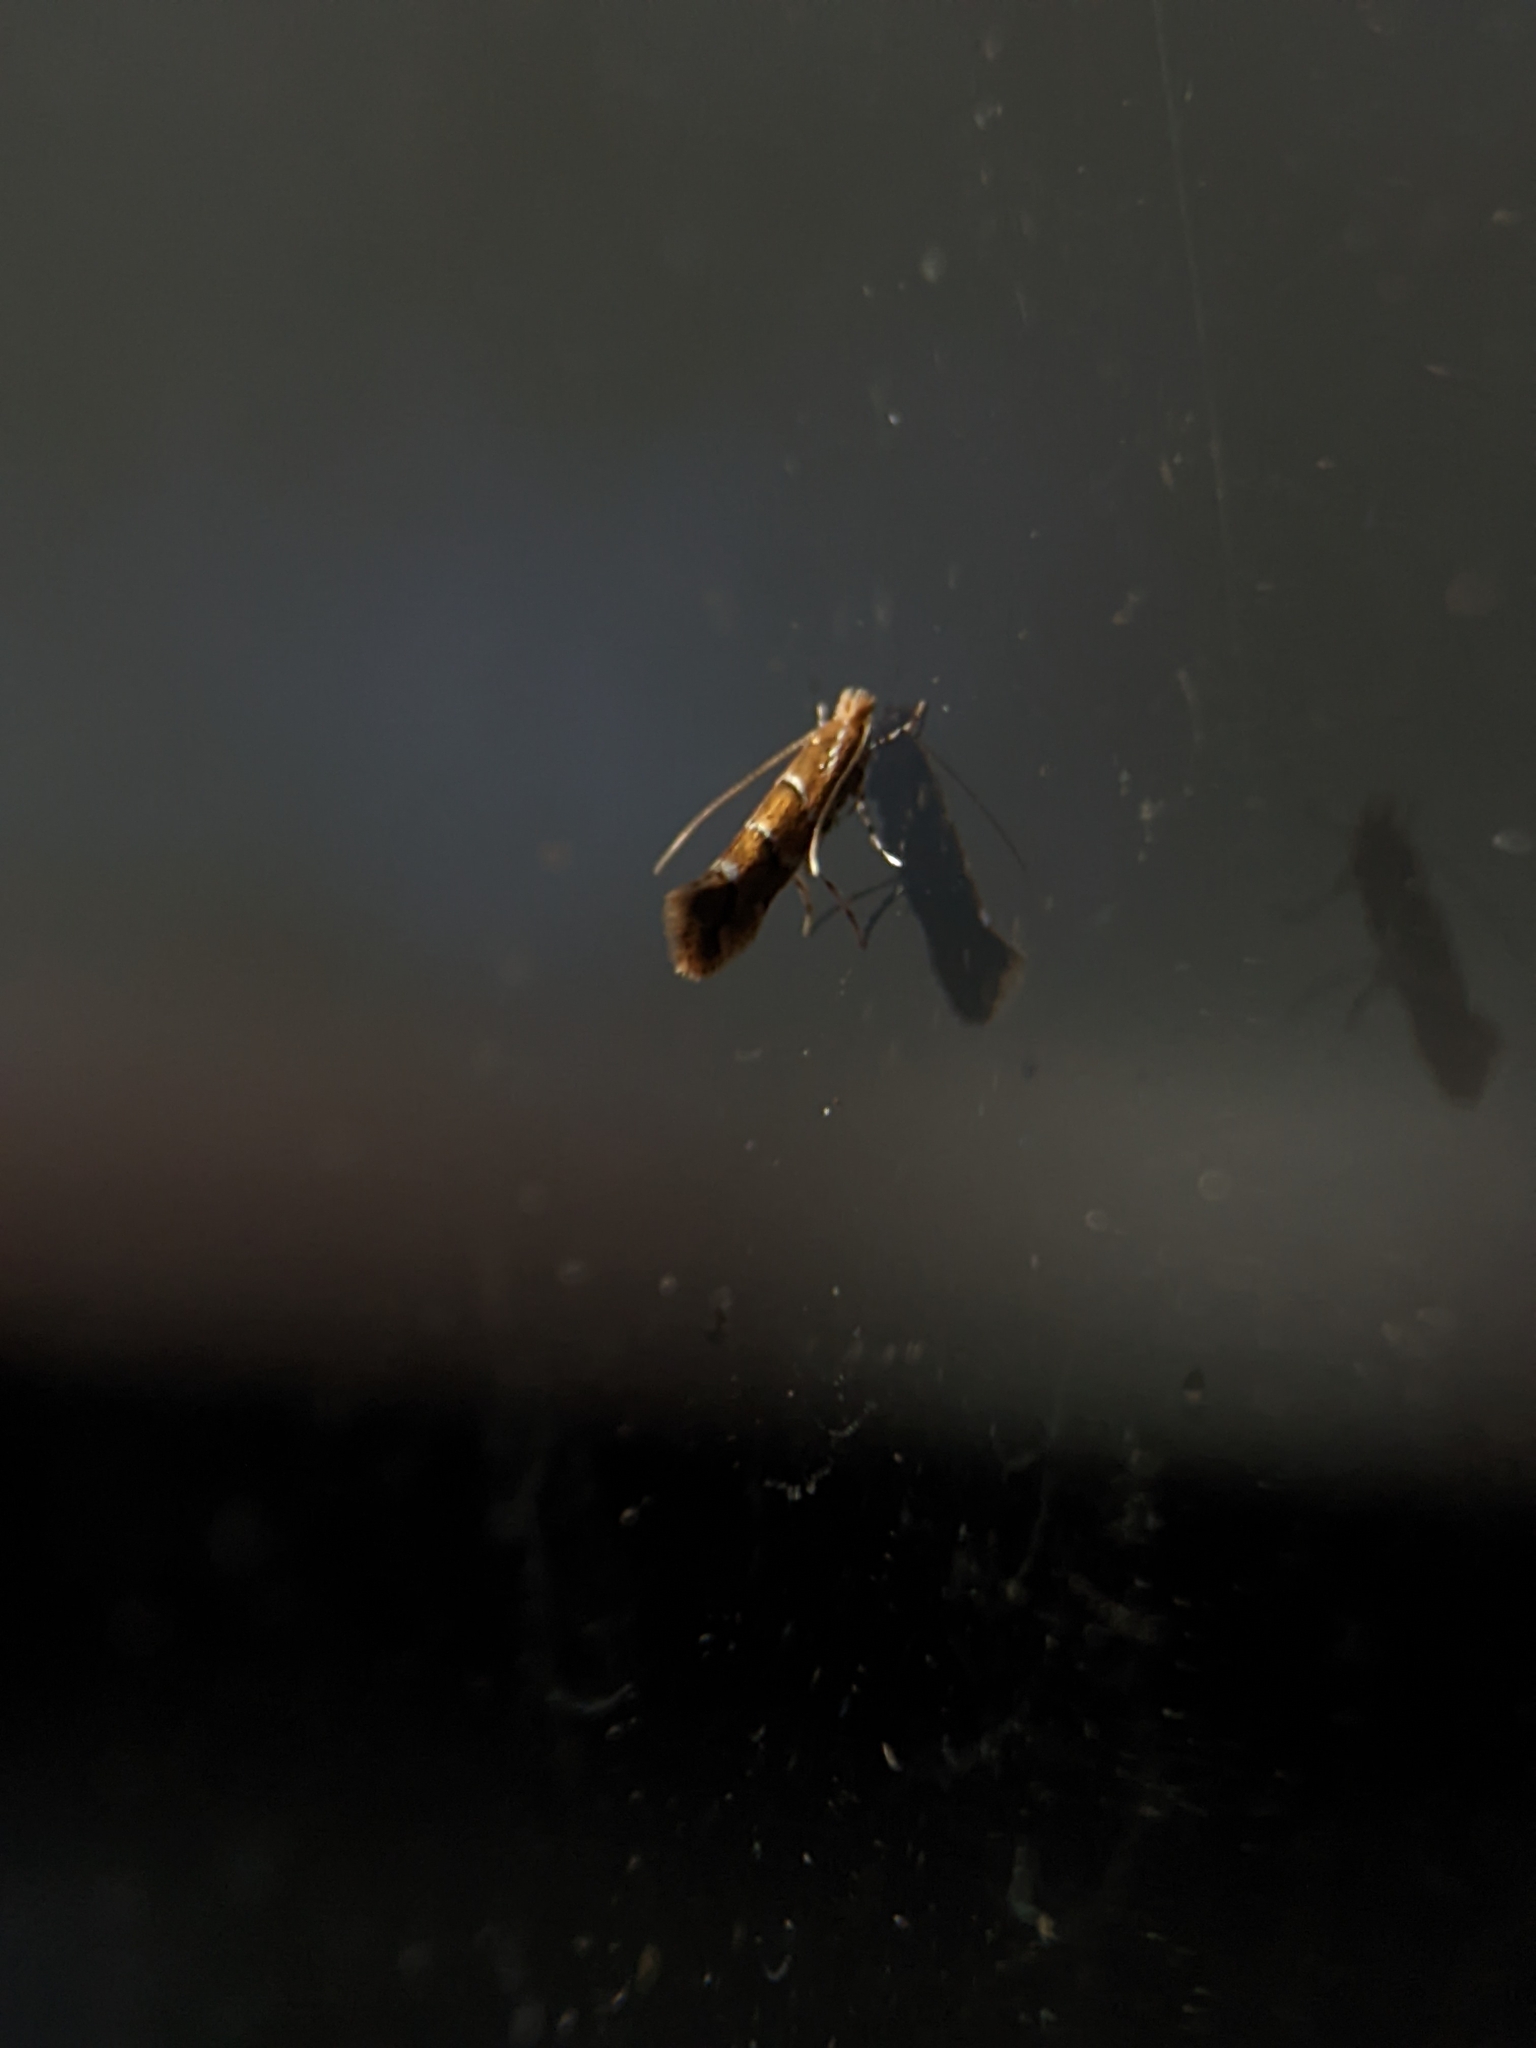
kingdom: Animalia
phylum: Arthropoda
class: Insecta
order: Lepidoptera
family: Gracillariidae
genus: Cameraria
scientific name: Cameraria ohridella
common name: Horse-chestnut leaf-miner
